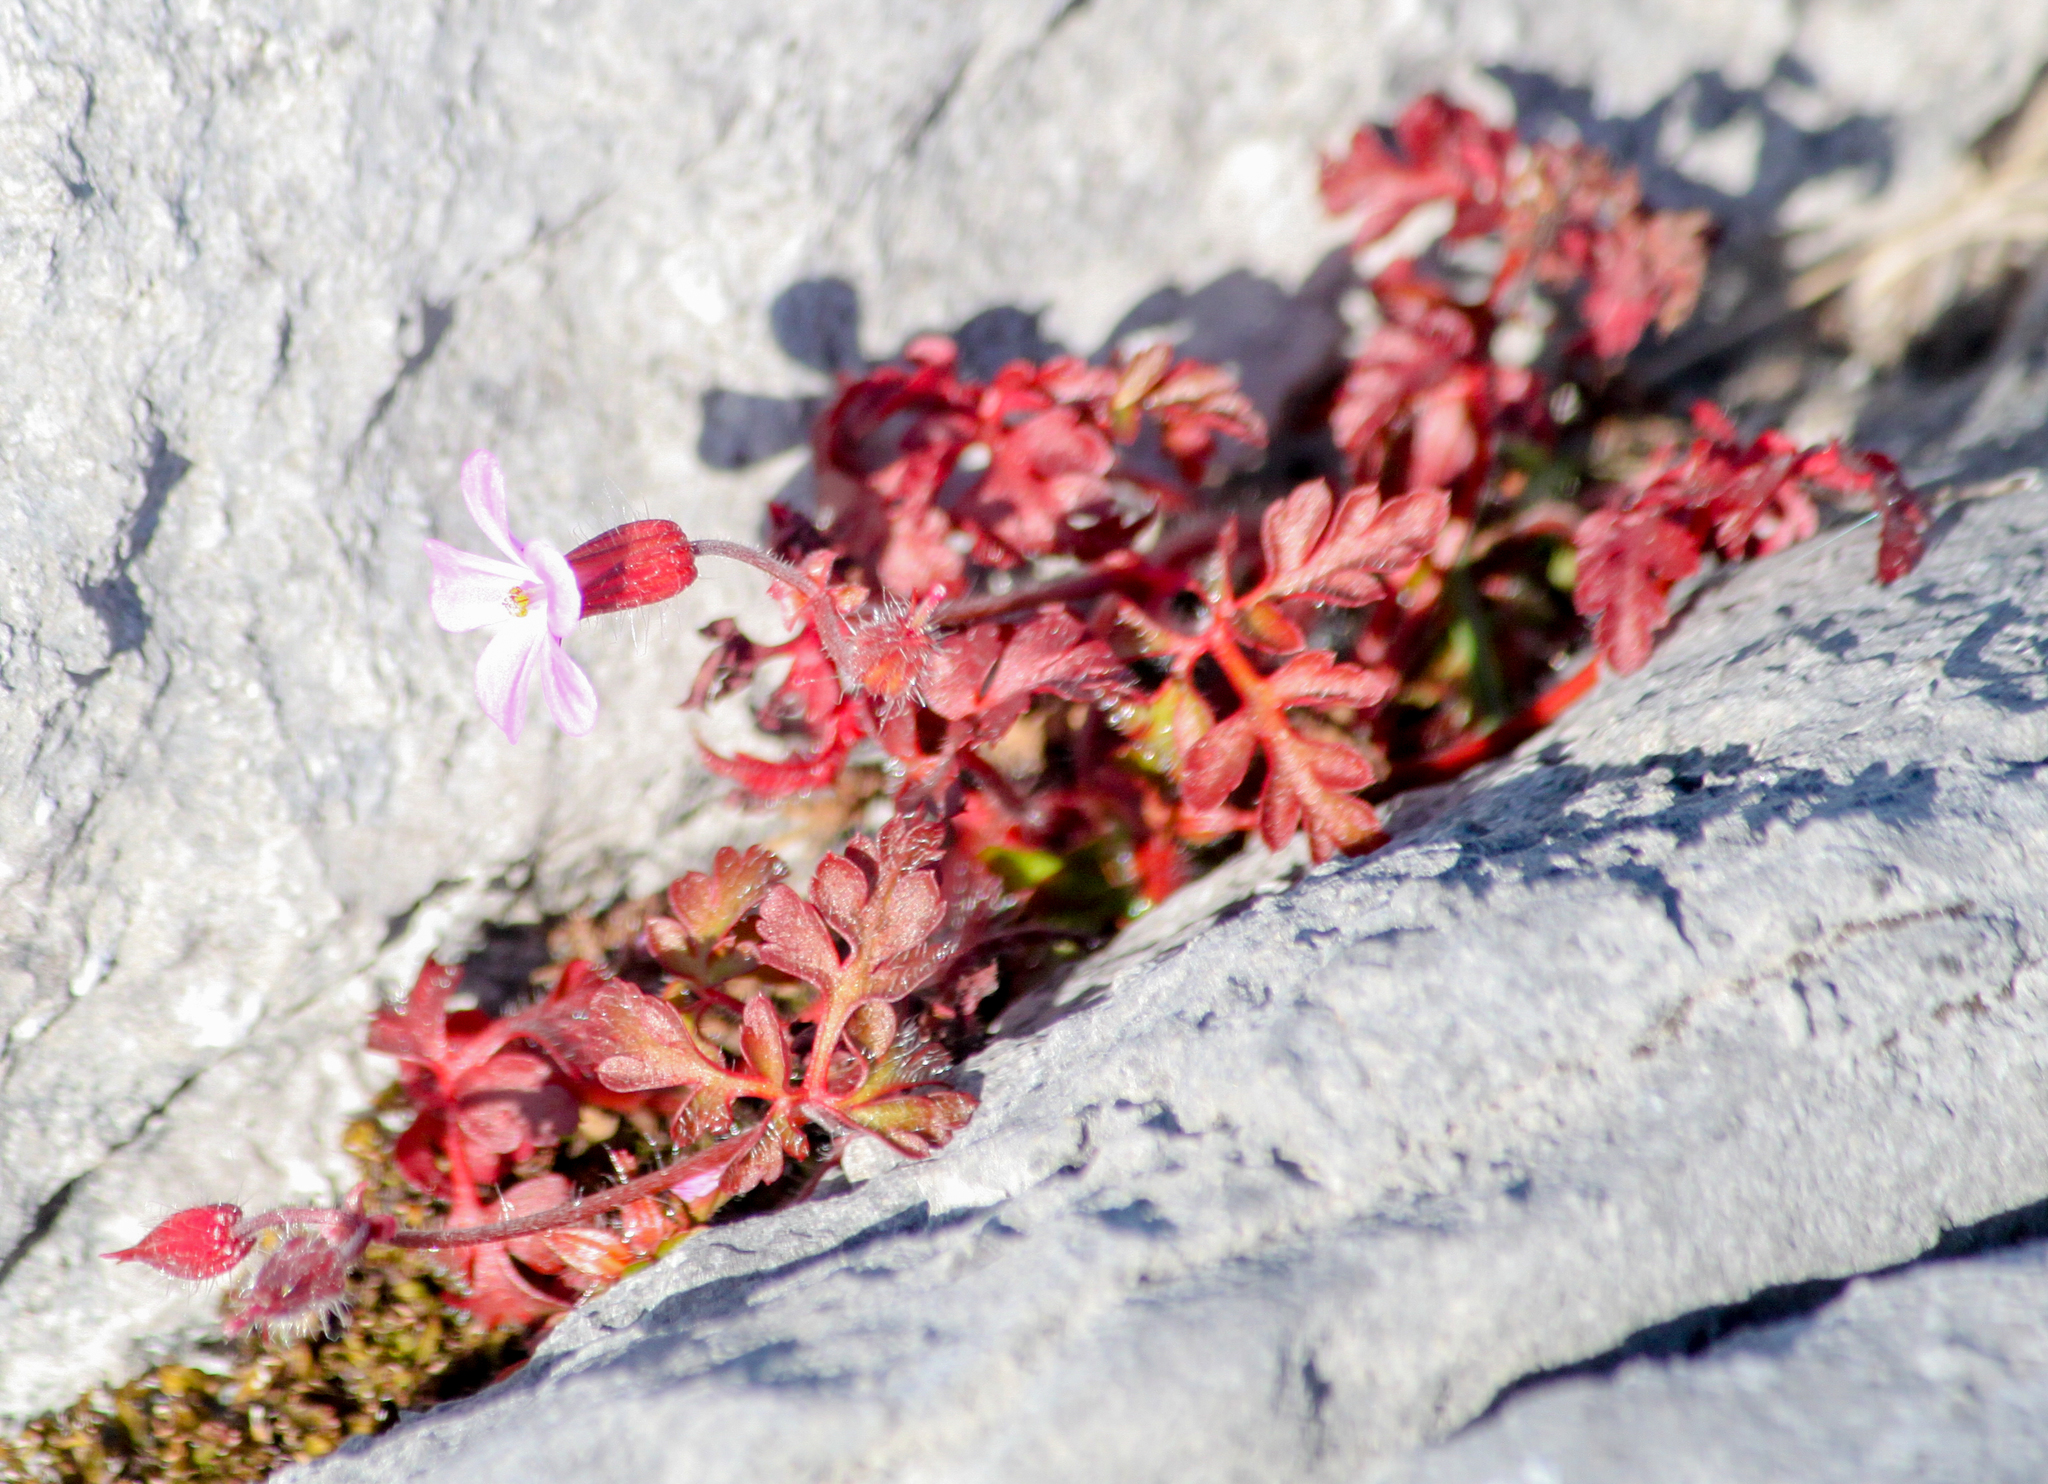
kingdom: Plantae
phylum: Tracheophyta
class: Magnoliopsida
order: Geraniales
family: Geraniaceae
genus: Geranium
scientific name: Geranium robertianum
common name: Herb-robert
